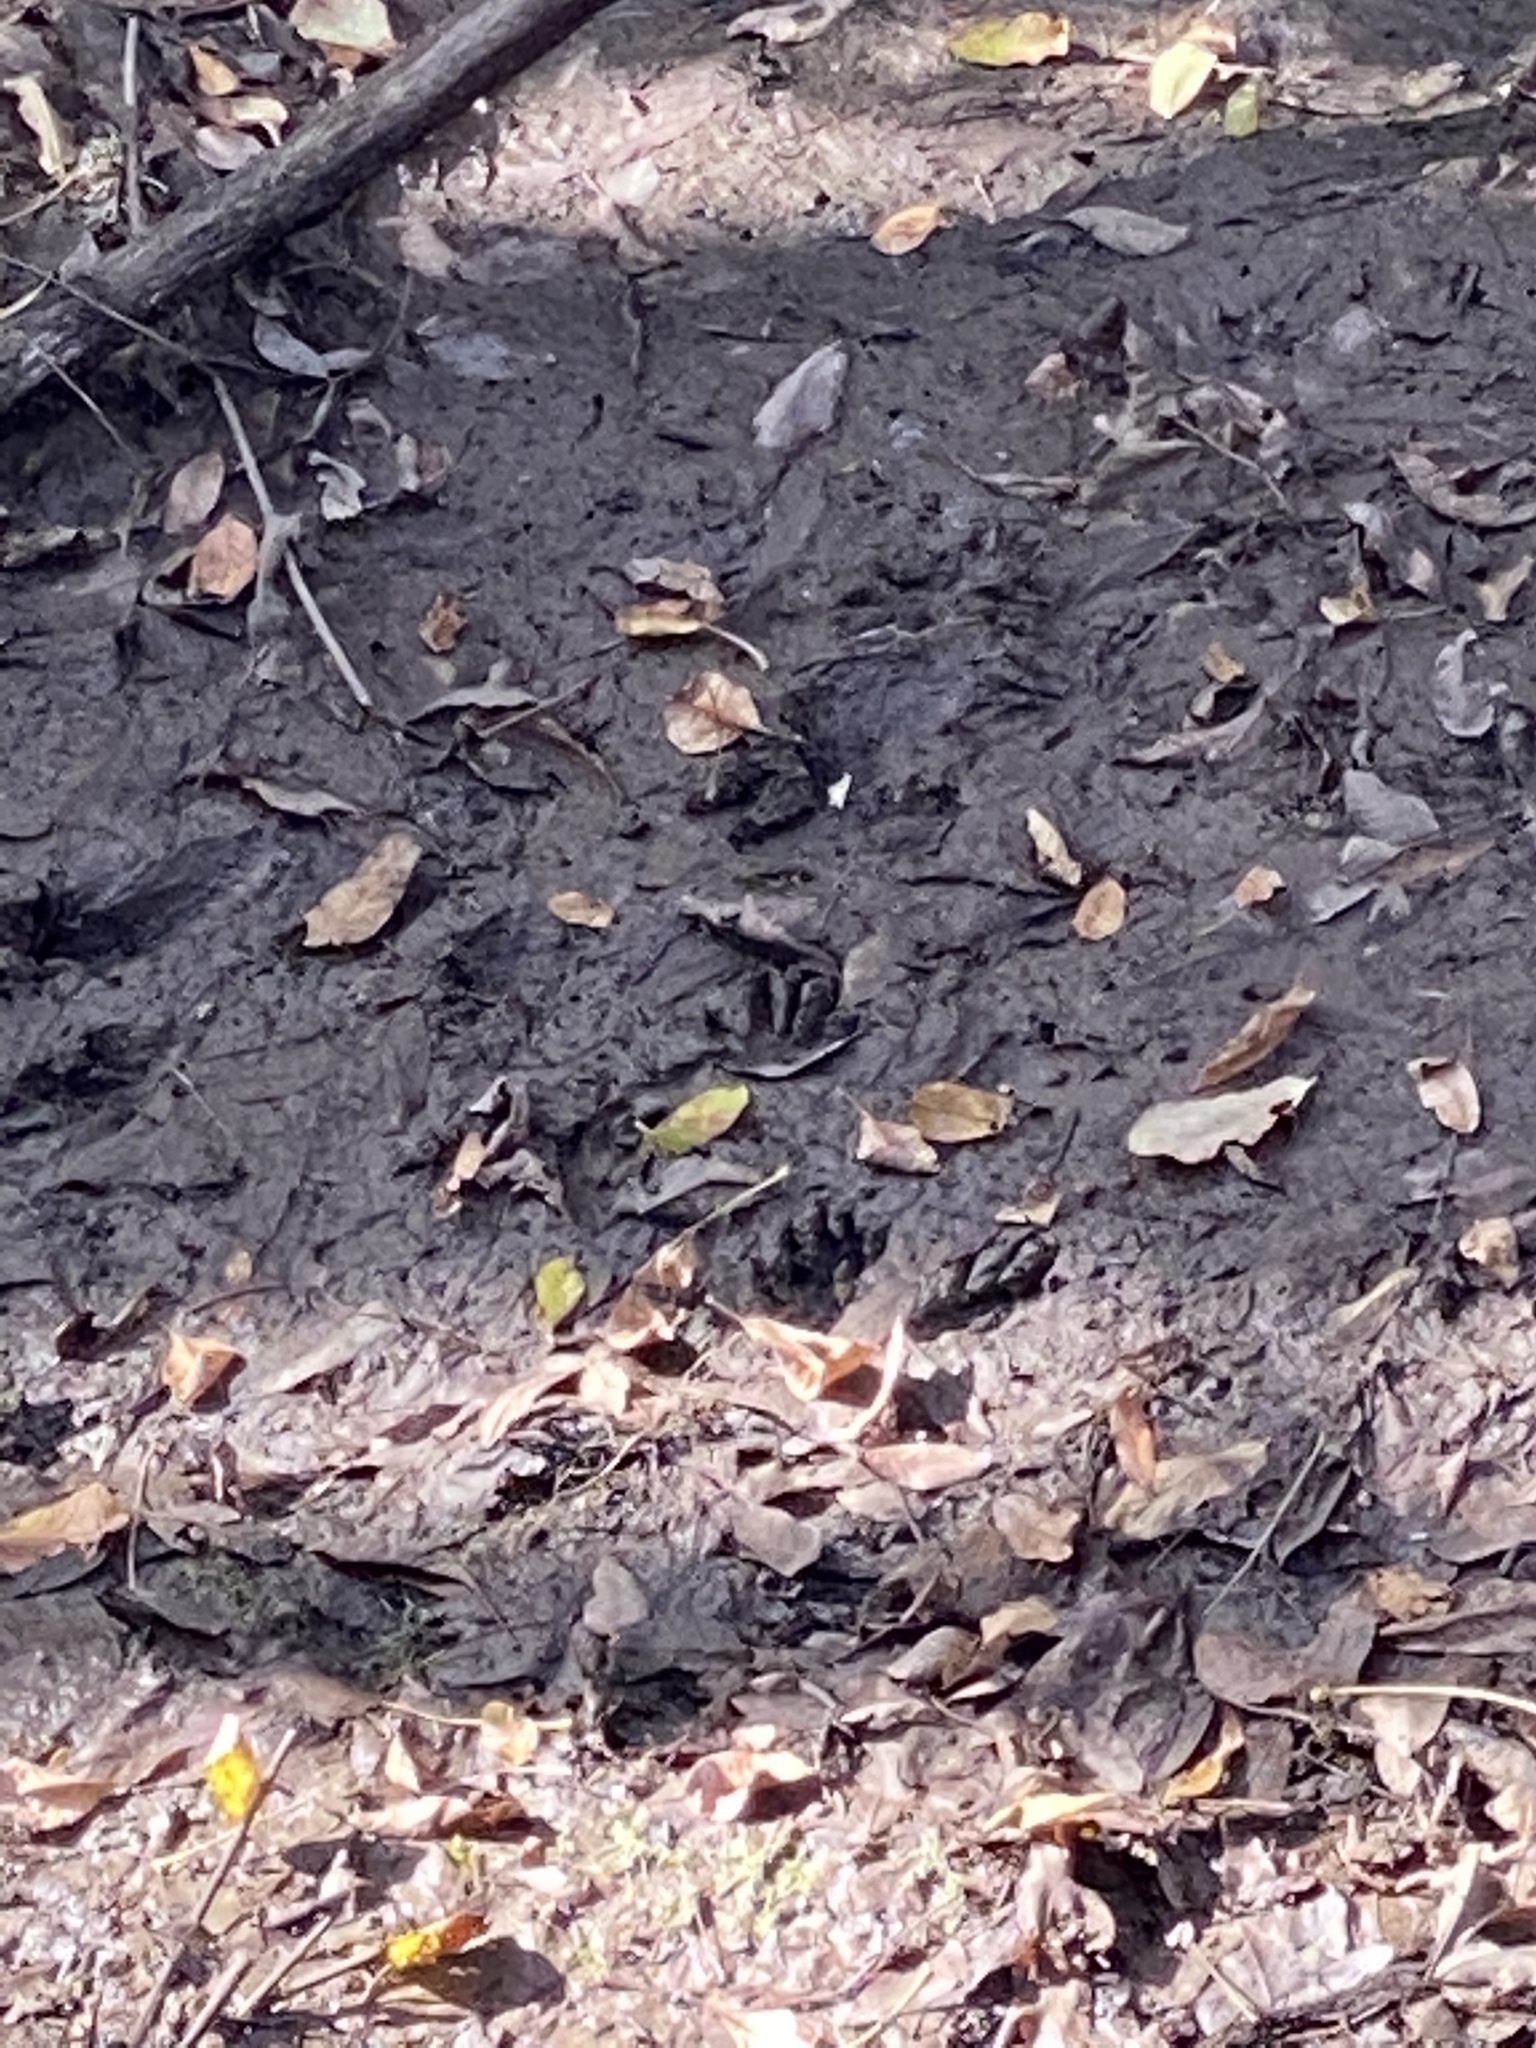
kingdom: Animalia
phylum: Chordata
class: Mammalia
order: Carnivora
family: Procyonidae
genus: Procyon
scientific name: Procyon lotor
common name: Raccoon
